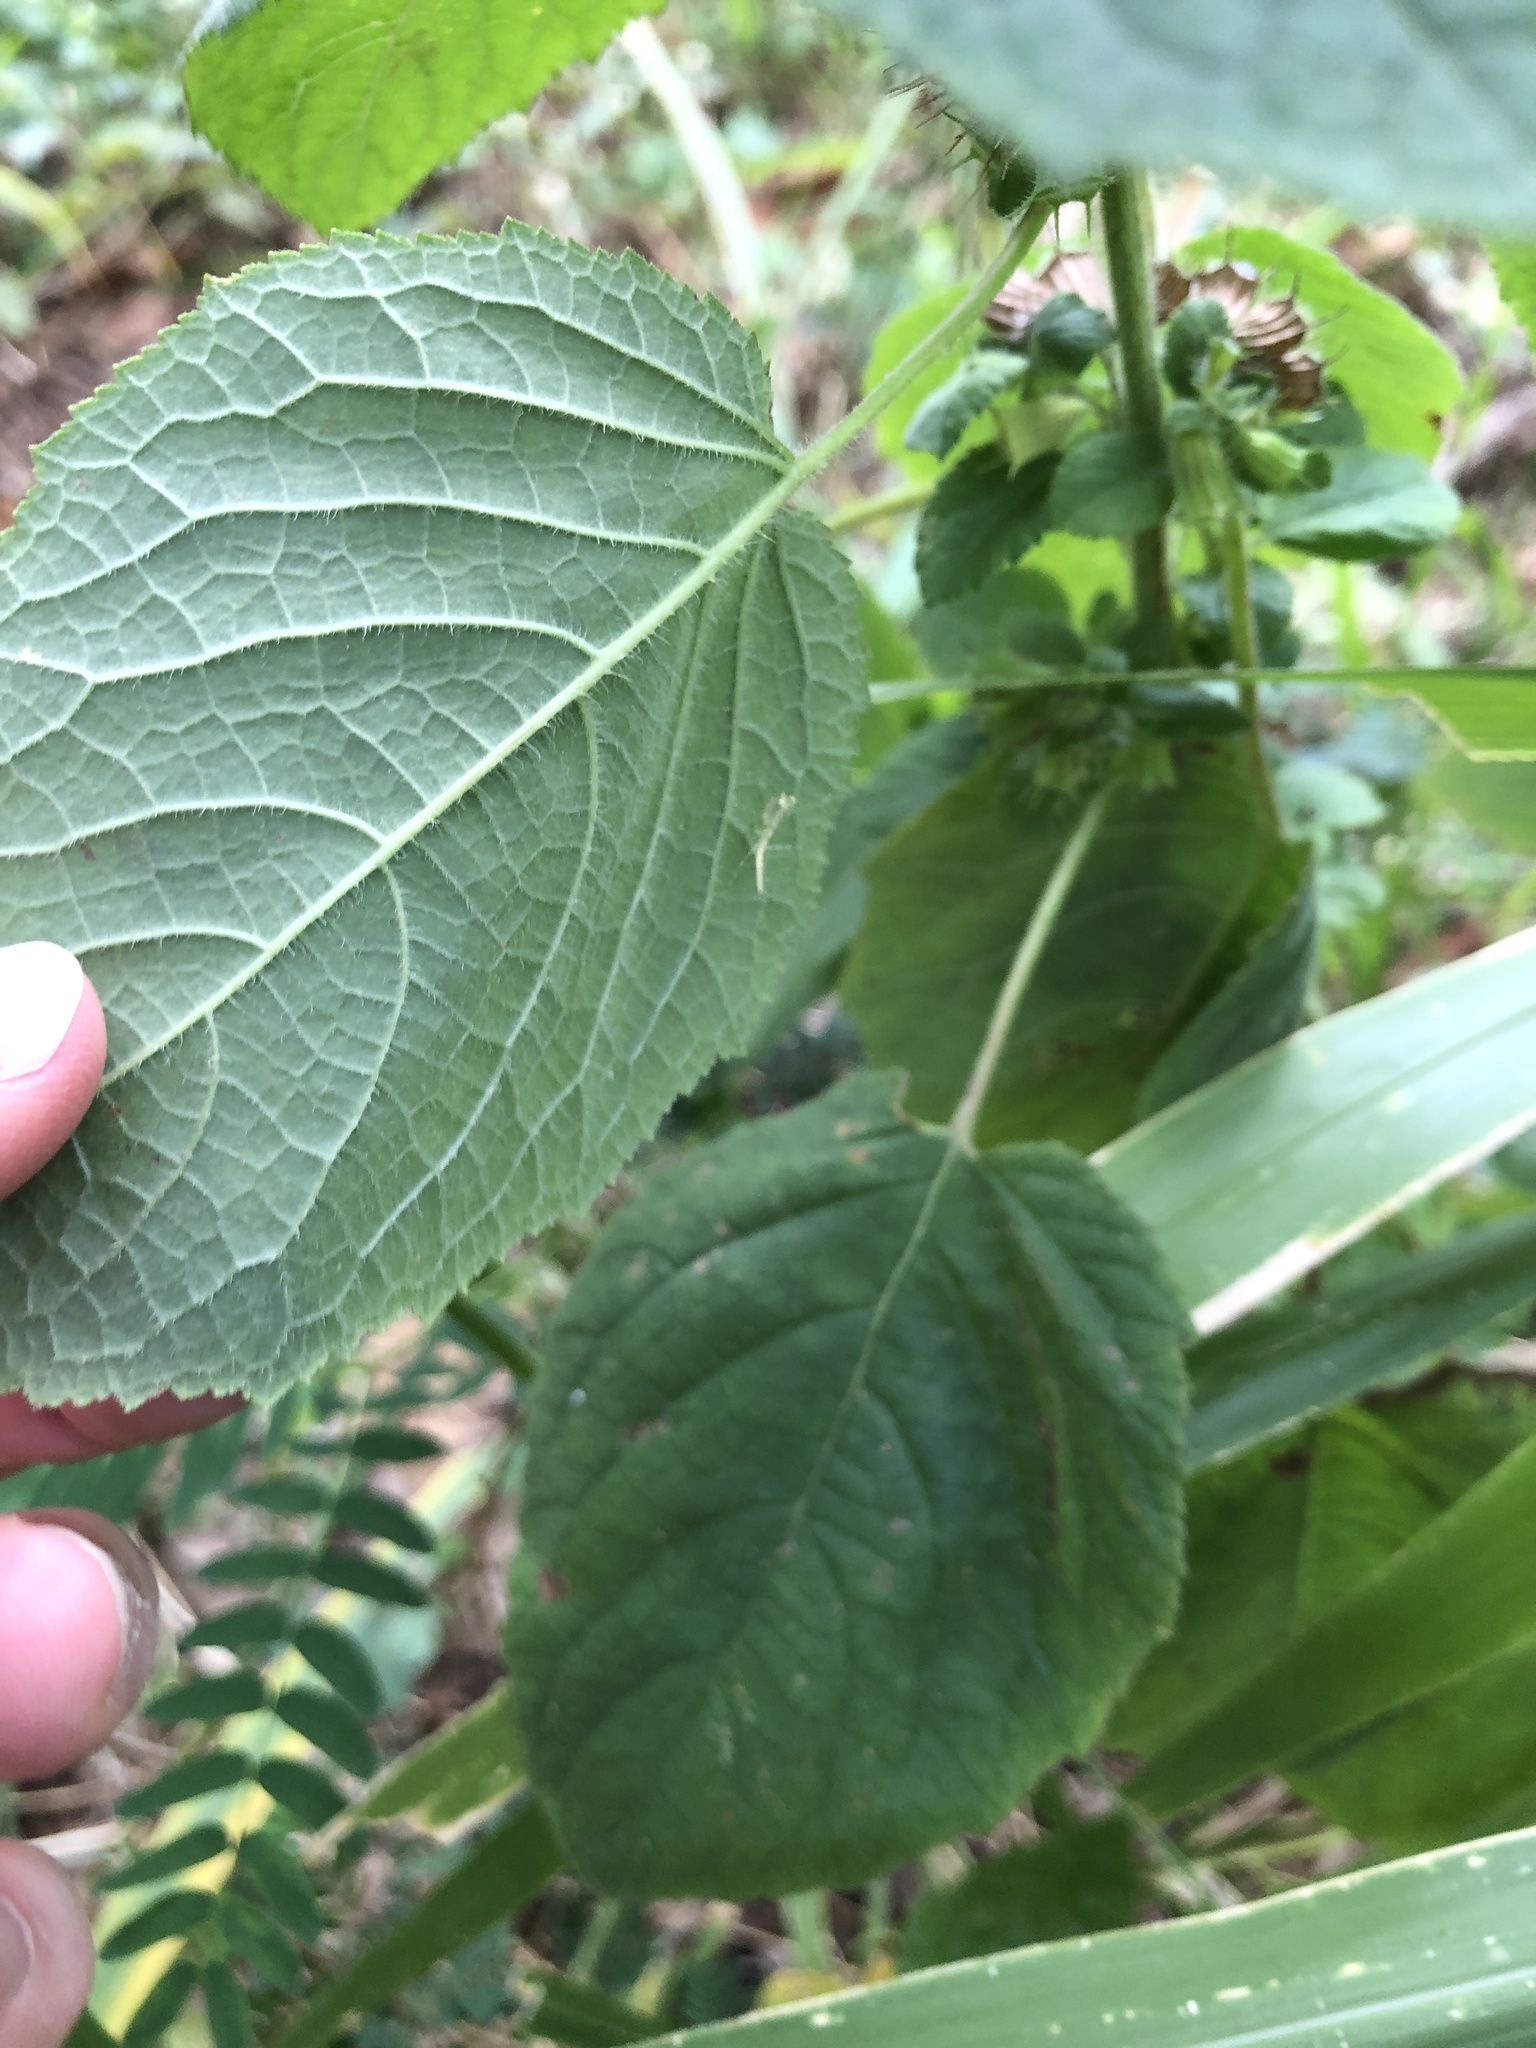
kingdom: Plantae
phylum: Tracheophyta
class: Magnoliopsida
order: Lamiales
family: Lamiaceae
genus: Mesosphaerum
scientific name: Mesosphaerum suaveolens
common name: Pignut
